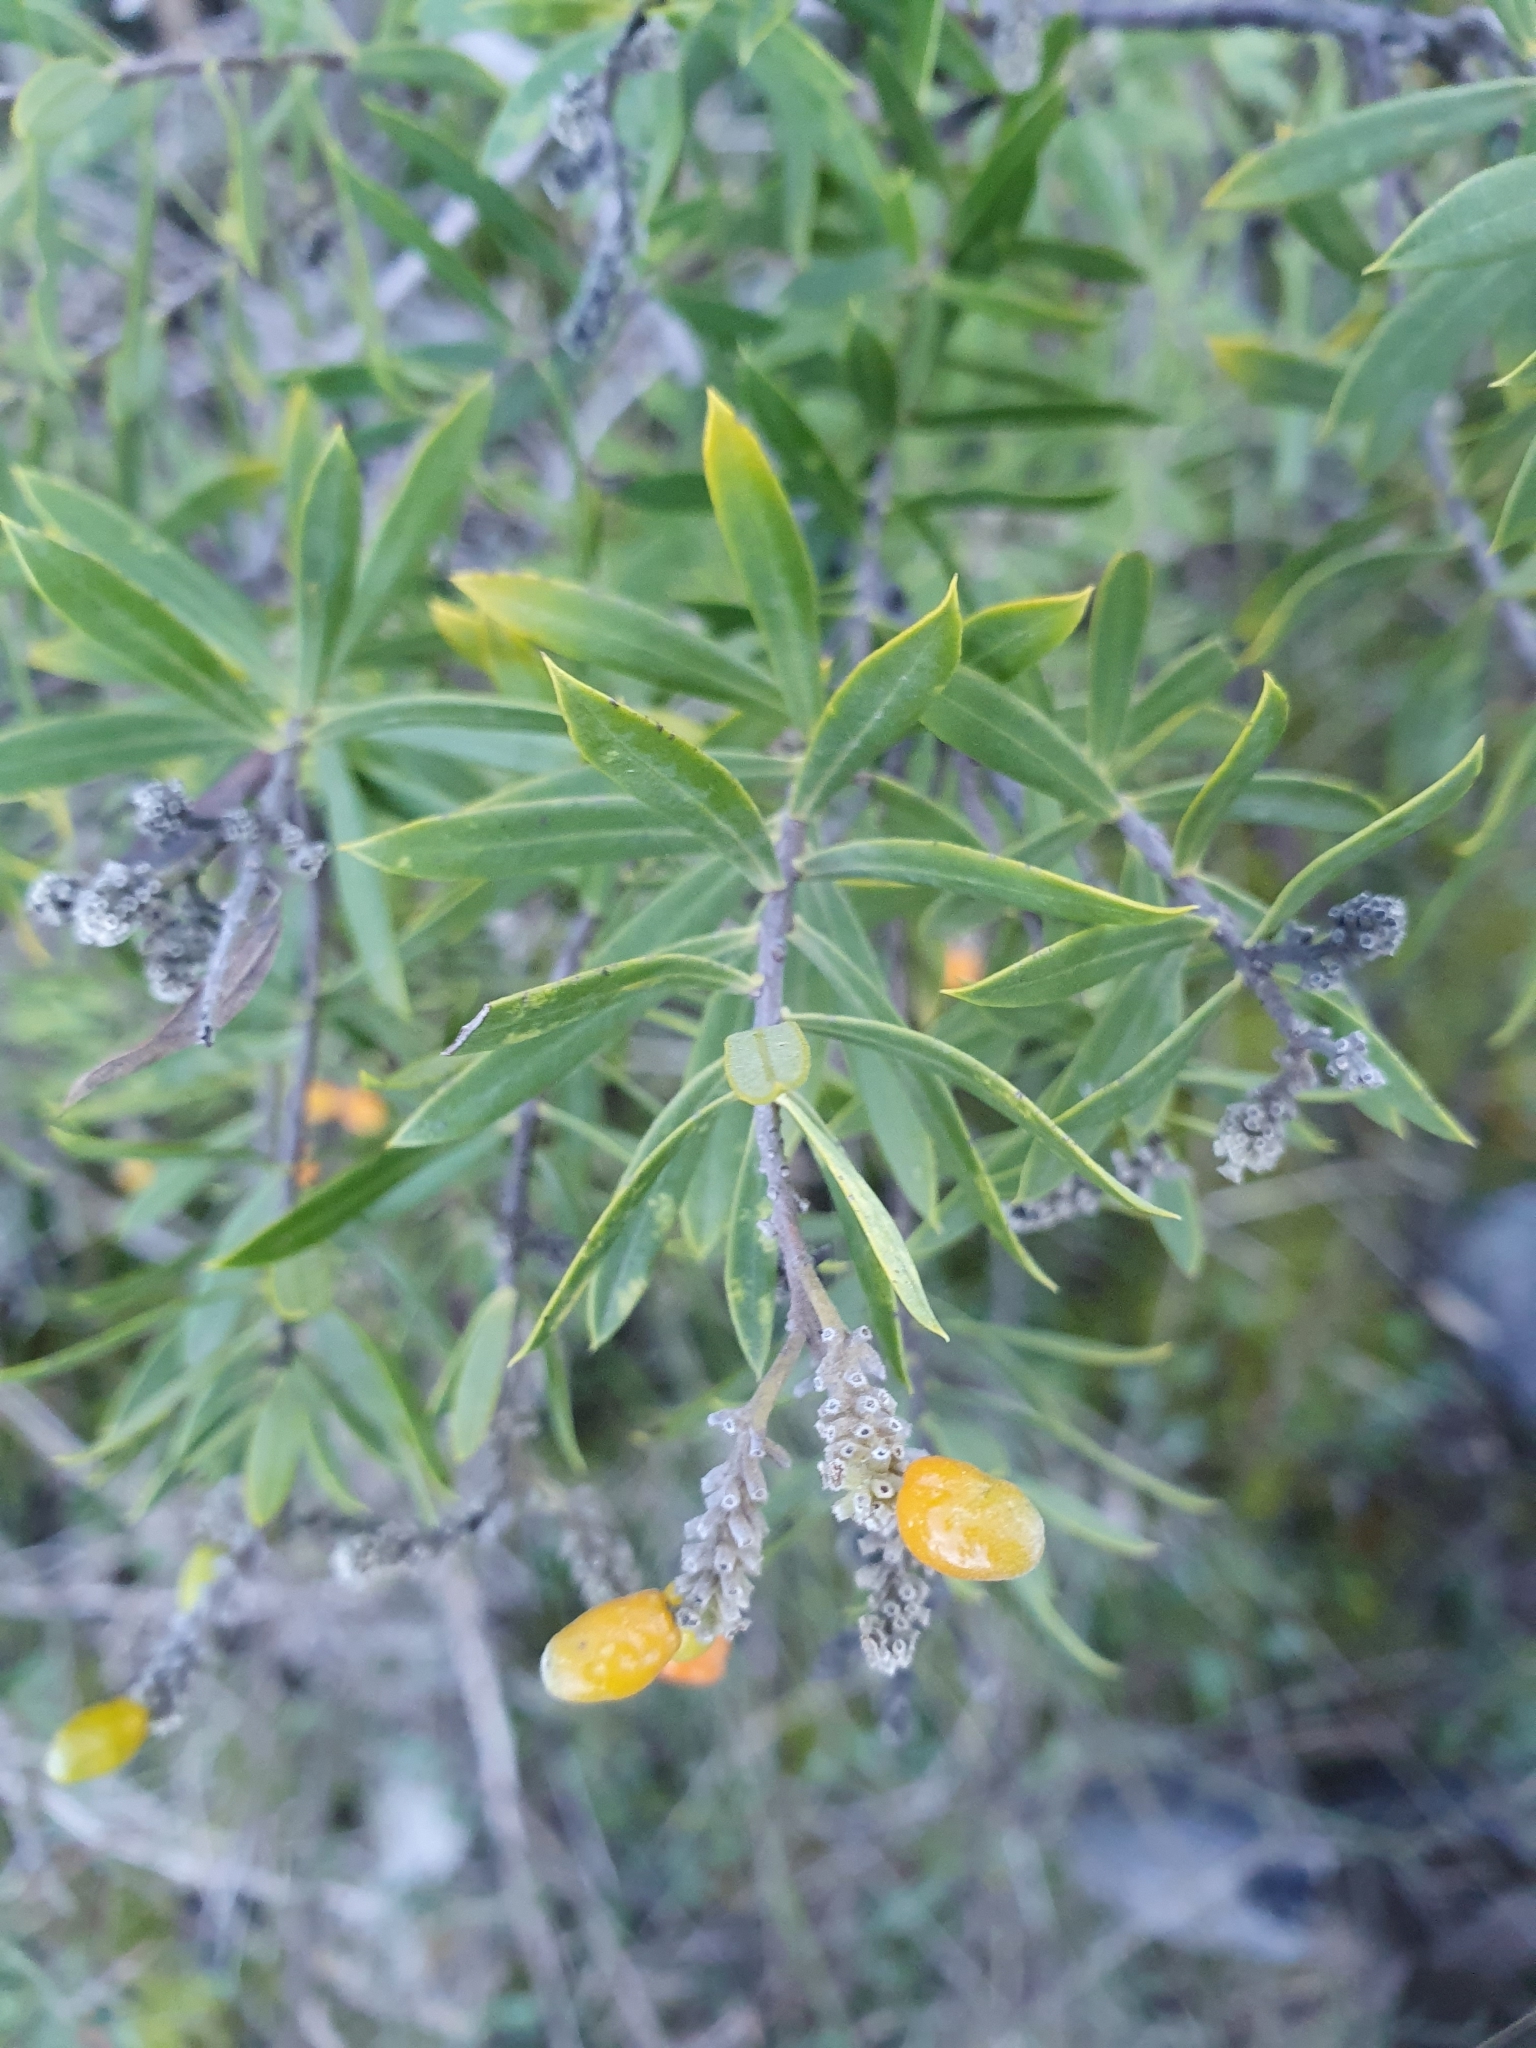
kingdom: Plantae
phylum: Tracheophyta
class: Magnoliopsida
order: Malvales
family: Thymelaeaceae
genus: Daphne
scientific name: Daphne gnidium
